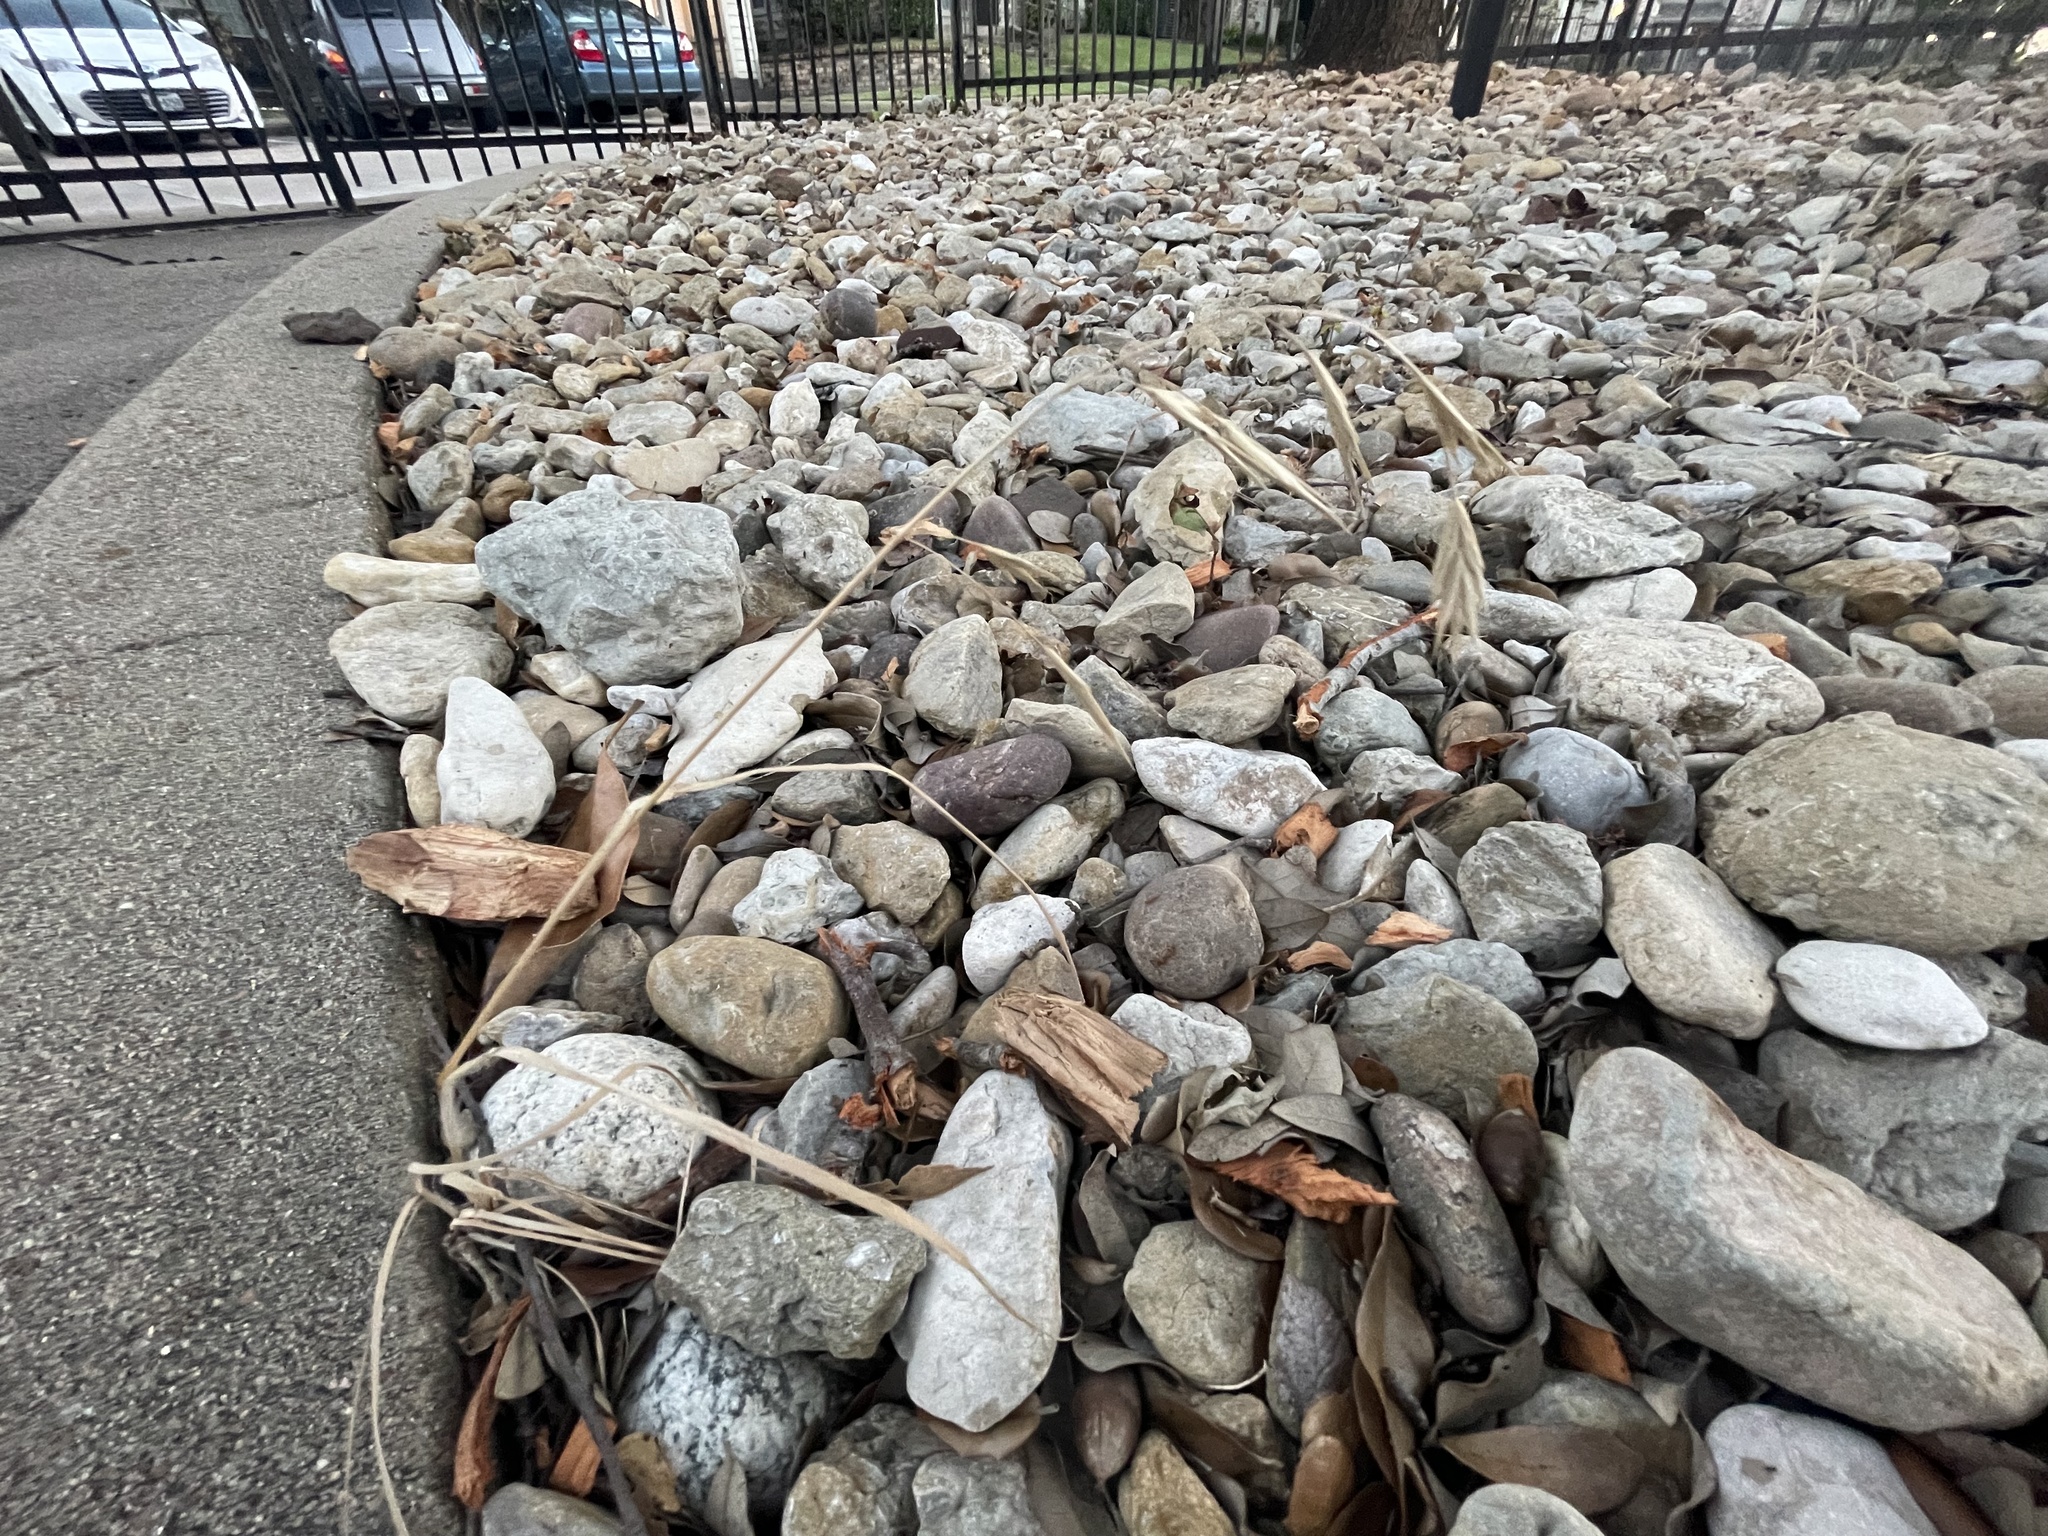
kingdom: Plantae
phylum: Tracheophyta
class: Liliopsida
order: Poales
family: Poaceae
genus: Bromus
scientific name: Bromus catharticus
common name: Rescuegrass
